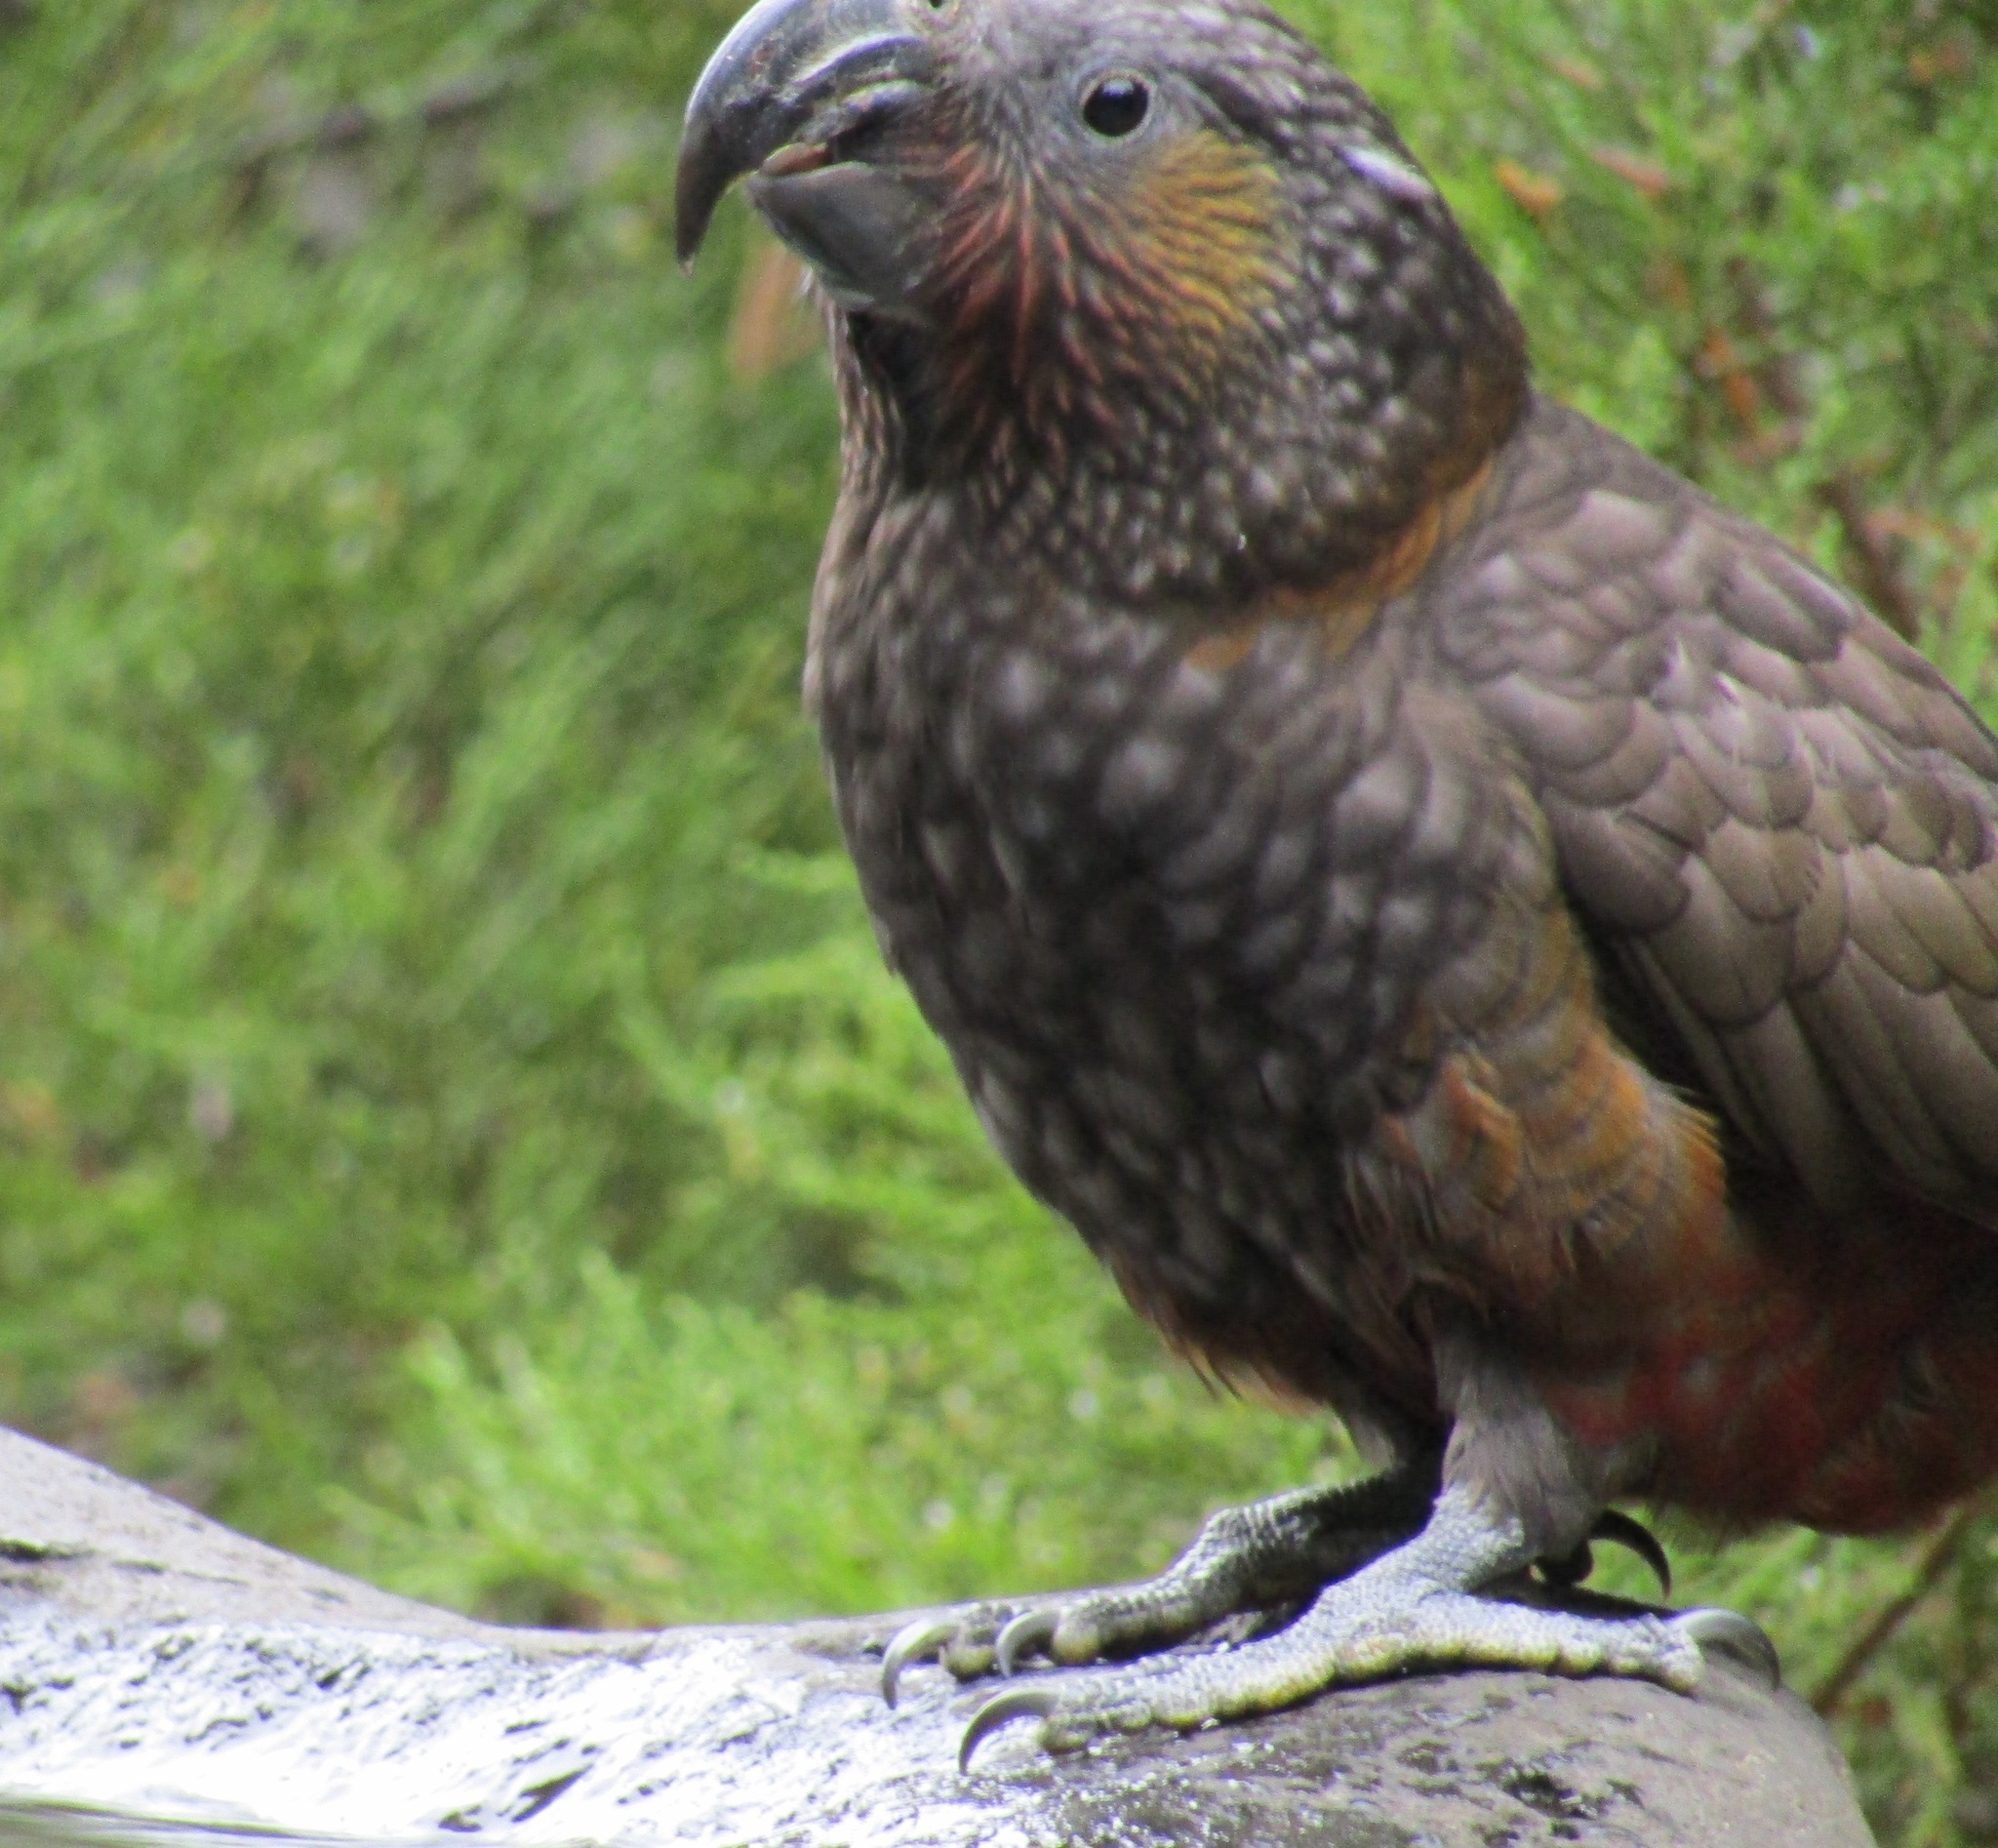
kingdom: Animalia
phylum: Chordata
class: Aves
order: Psittaciformes
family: Psittacidae
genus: Nestor
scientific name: Nestor meridionalis
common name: New zealand kaka
